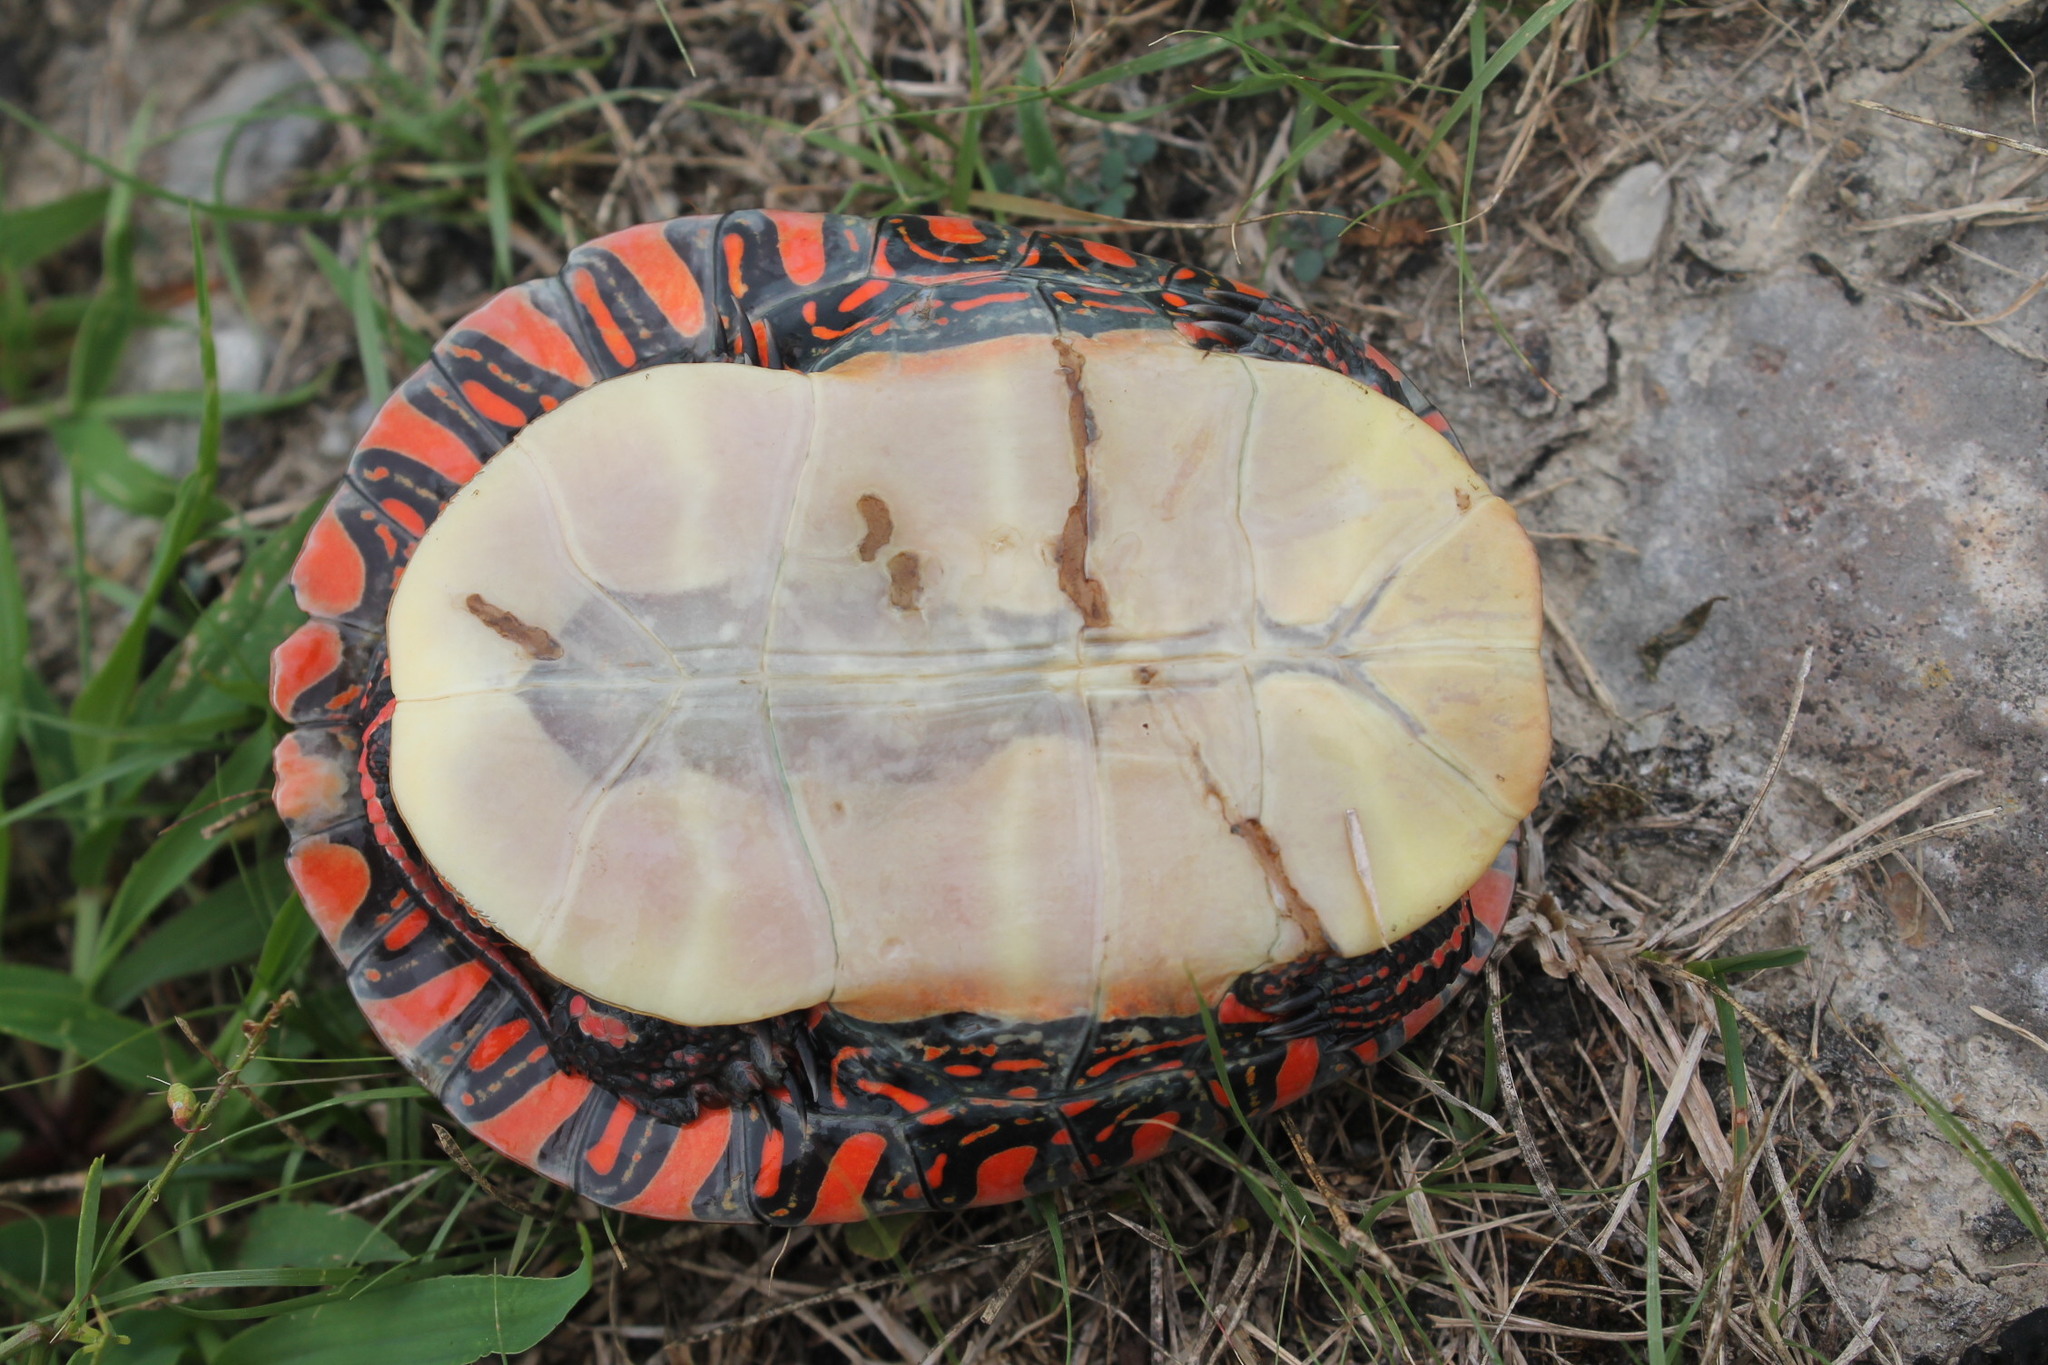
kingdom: Animalia
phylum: Chordata
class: Testudines
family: Emydidae
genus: Chrysemys
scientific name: Chrysemys picta
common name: Painted turtle
